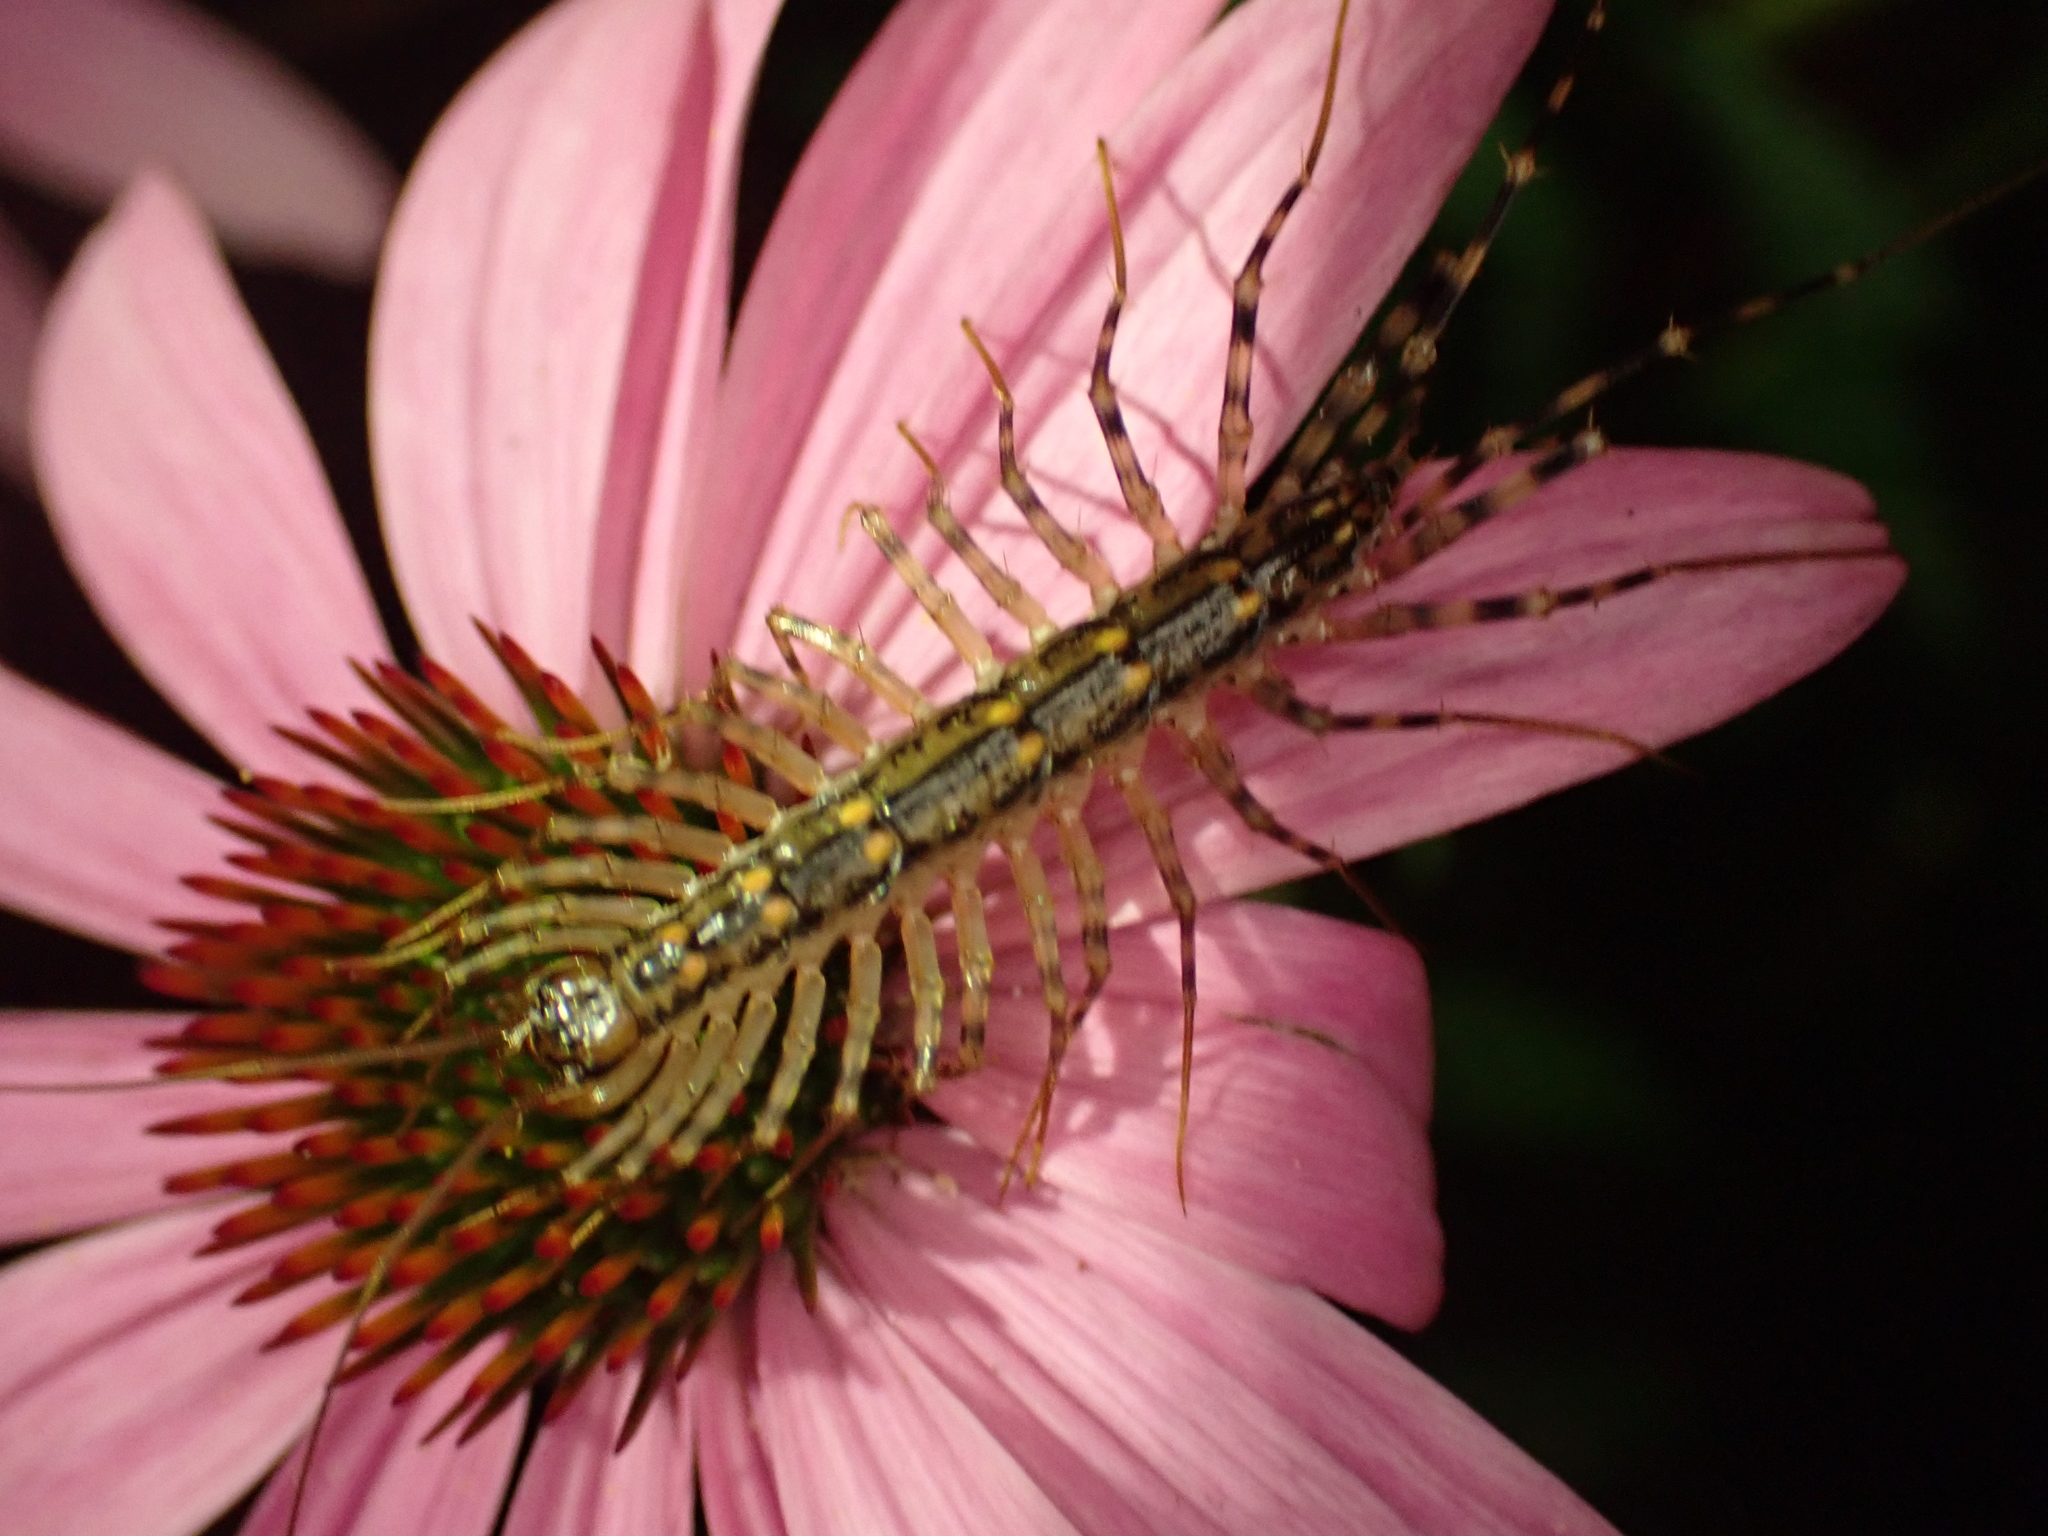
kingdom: Animalia
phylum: Arthropoda
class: Chilopoda
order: Scutigeromorpha
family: Scutigeridae
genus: Scutigera
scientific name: Scutigera coleoptrata
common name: House centipede
